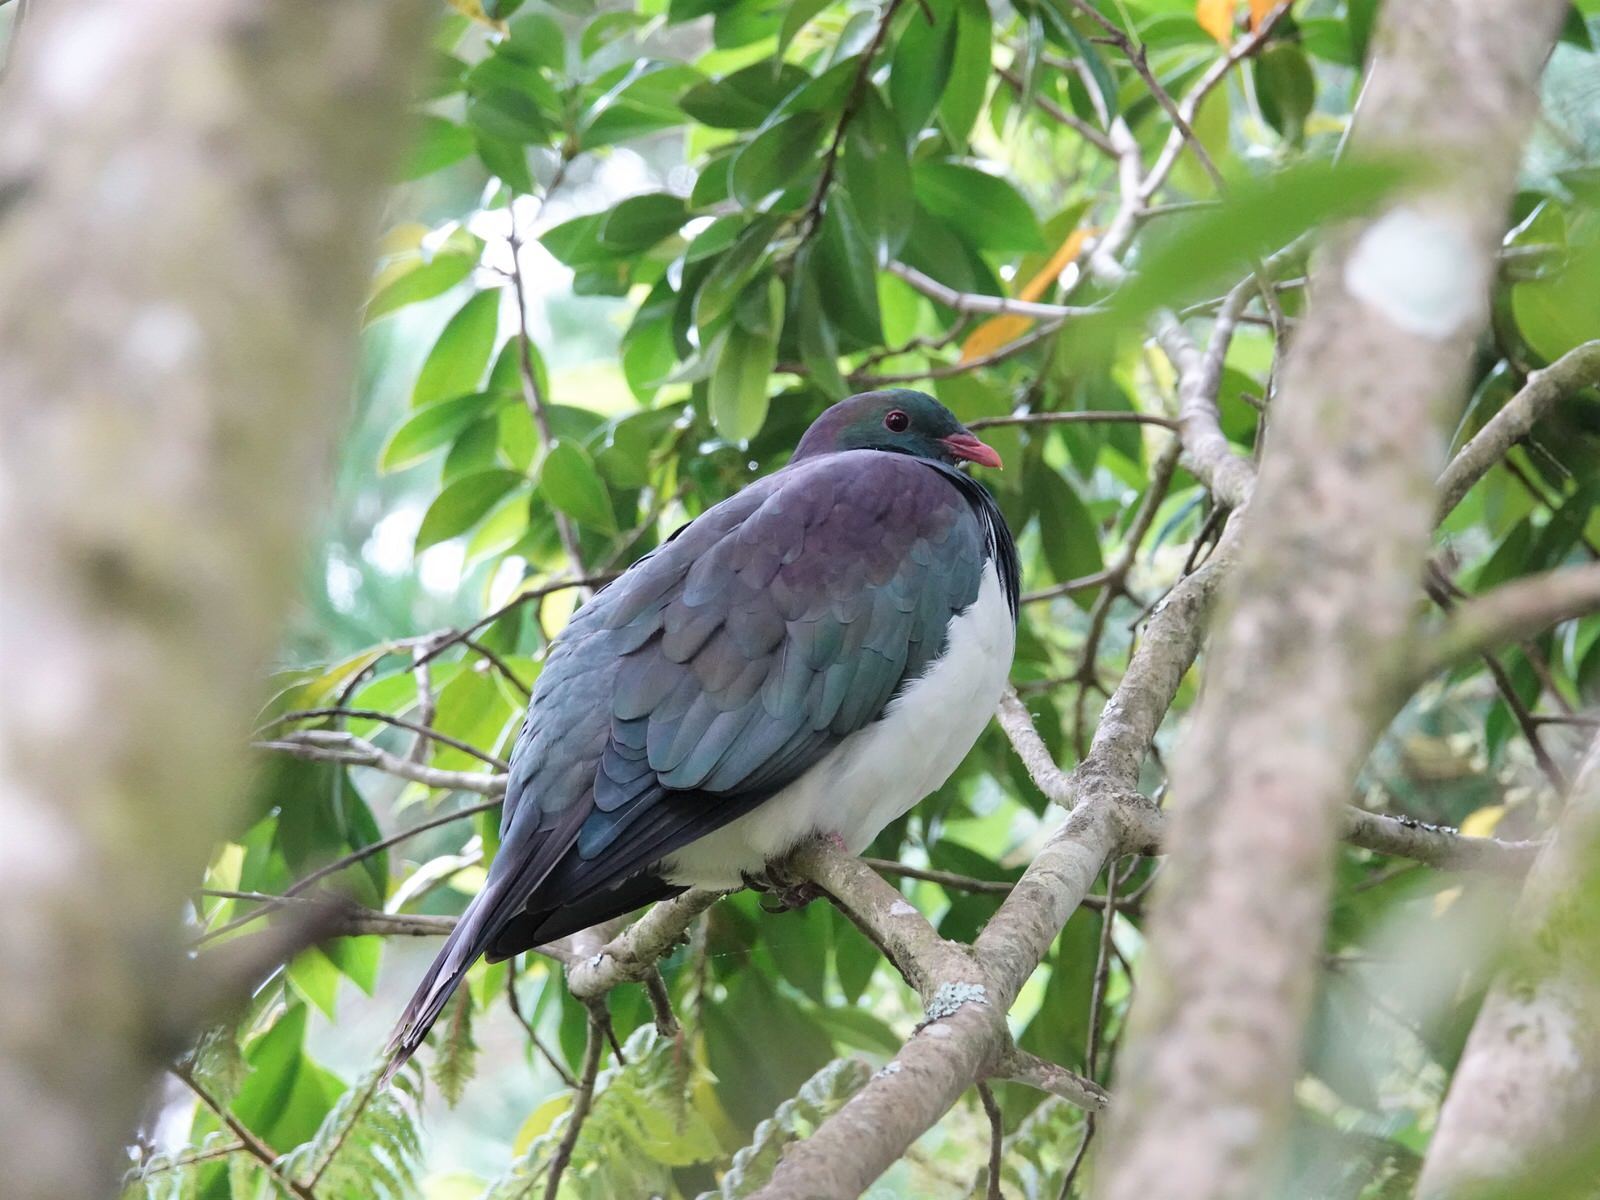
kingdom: Animalia
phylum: Chordata
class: Aves
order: Columbiformes
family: Columbidae
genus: Hemiphaga
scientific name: Hemiphaga novaeseelandiae
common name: New zealand pigeon
